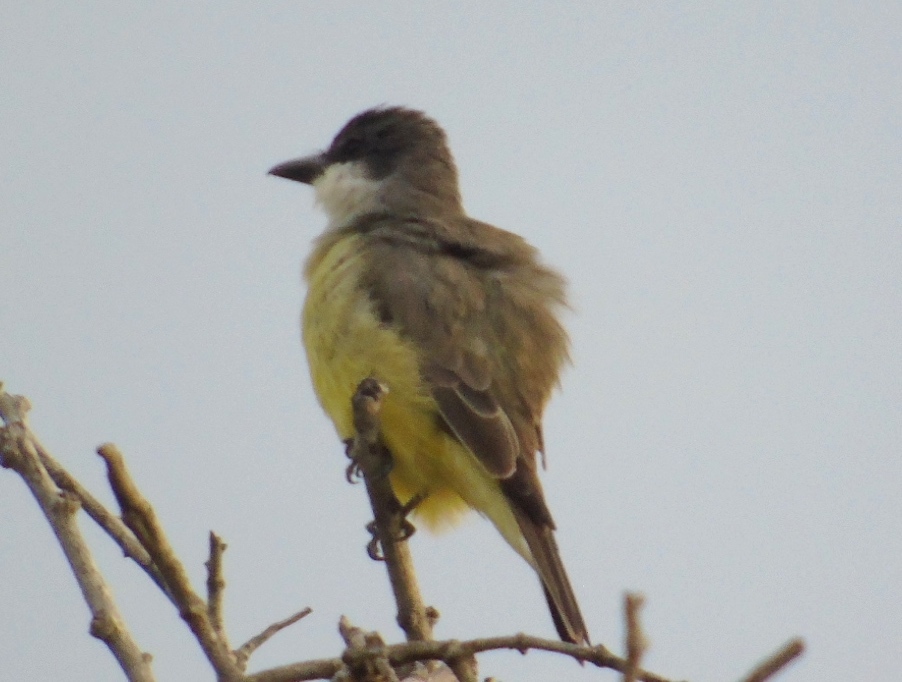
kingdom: Animalia
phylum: Chordata
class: Aves
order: Passeriformes
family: Tyrannidae
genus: Tyrannus
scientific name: Tyrannus crassirostris
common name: Thick-billed kingbird
